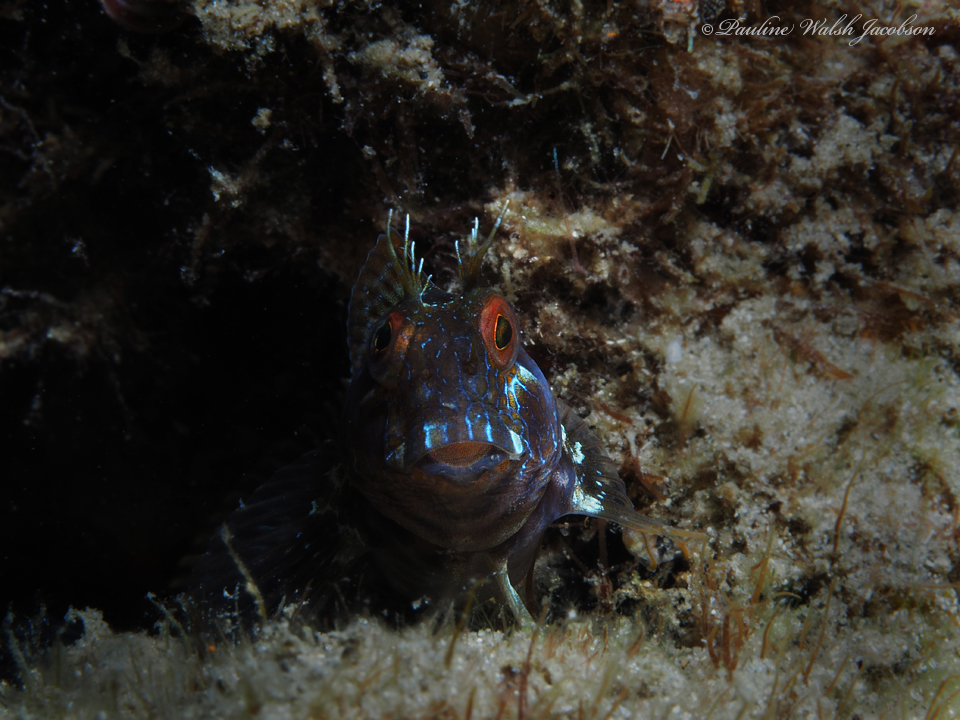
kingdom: Animalia
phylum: Chordata
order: Perciformes
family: Blenniidae
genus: Parablennius
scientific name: Parablennius marmoreus
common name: Seaweed blenny
